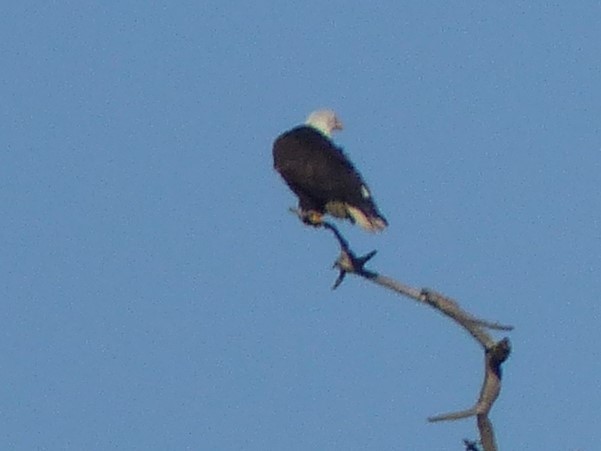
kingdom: Animalia
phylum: Chordata
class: Aves
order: Accipitriformes
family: Accipitridae
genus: Haliaeetus
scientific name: Haliaeetus leucocephalus
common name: Bald eagle
